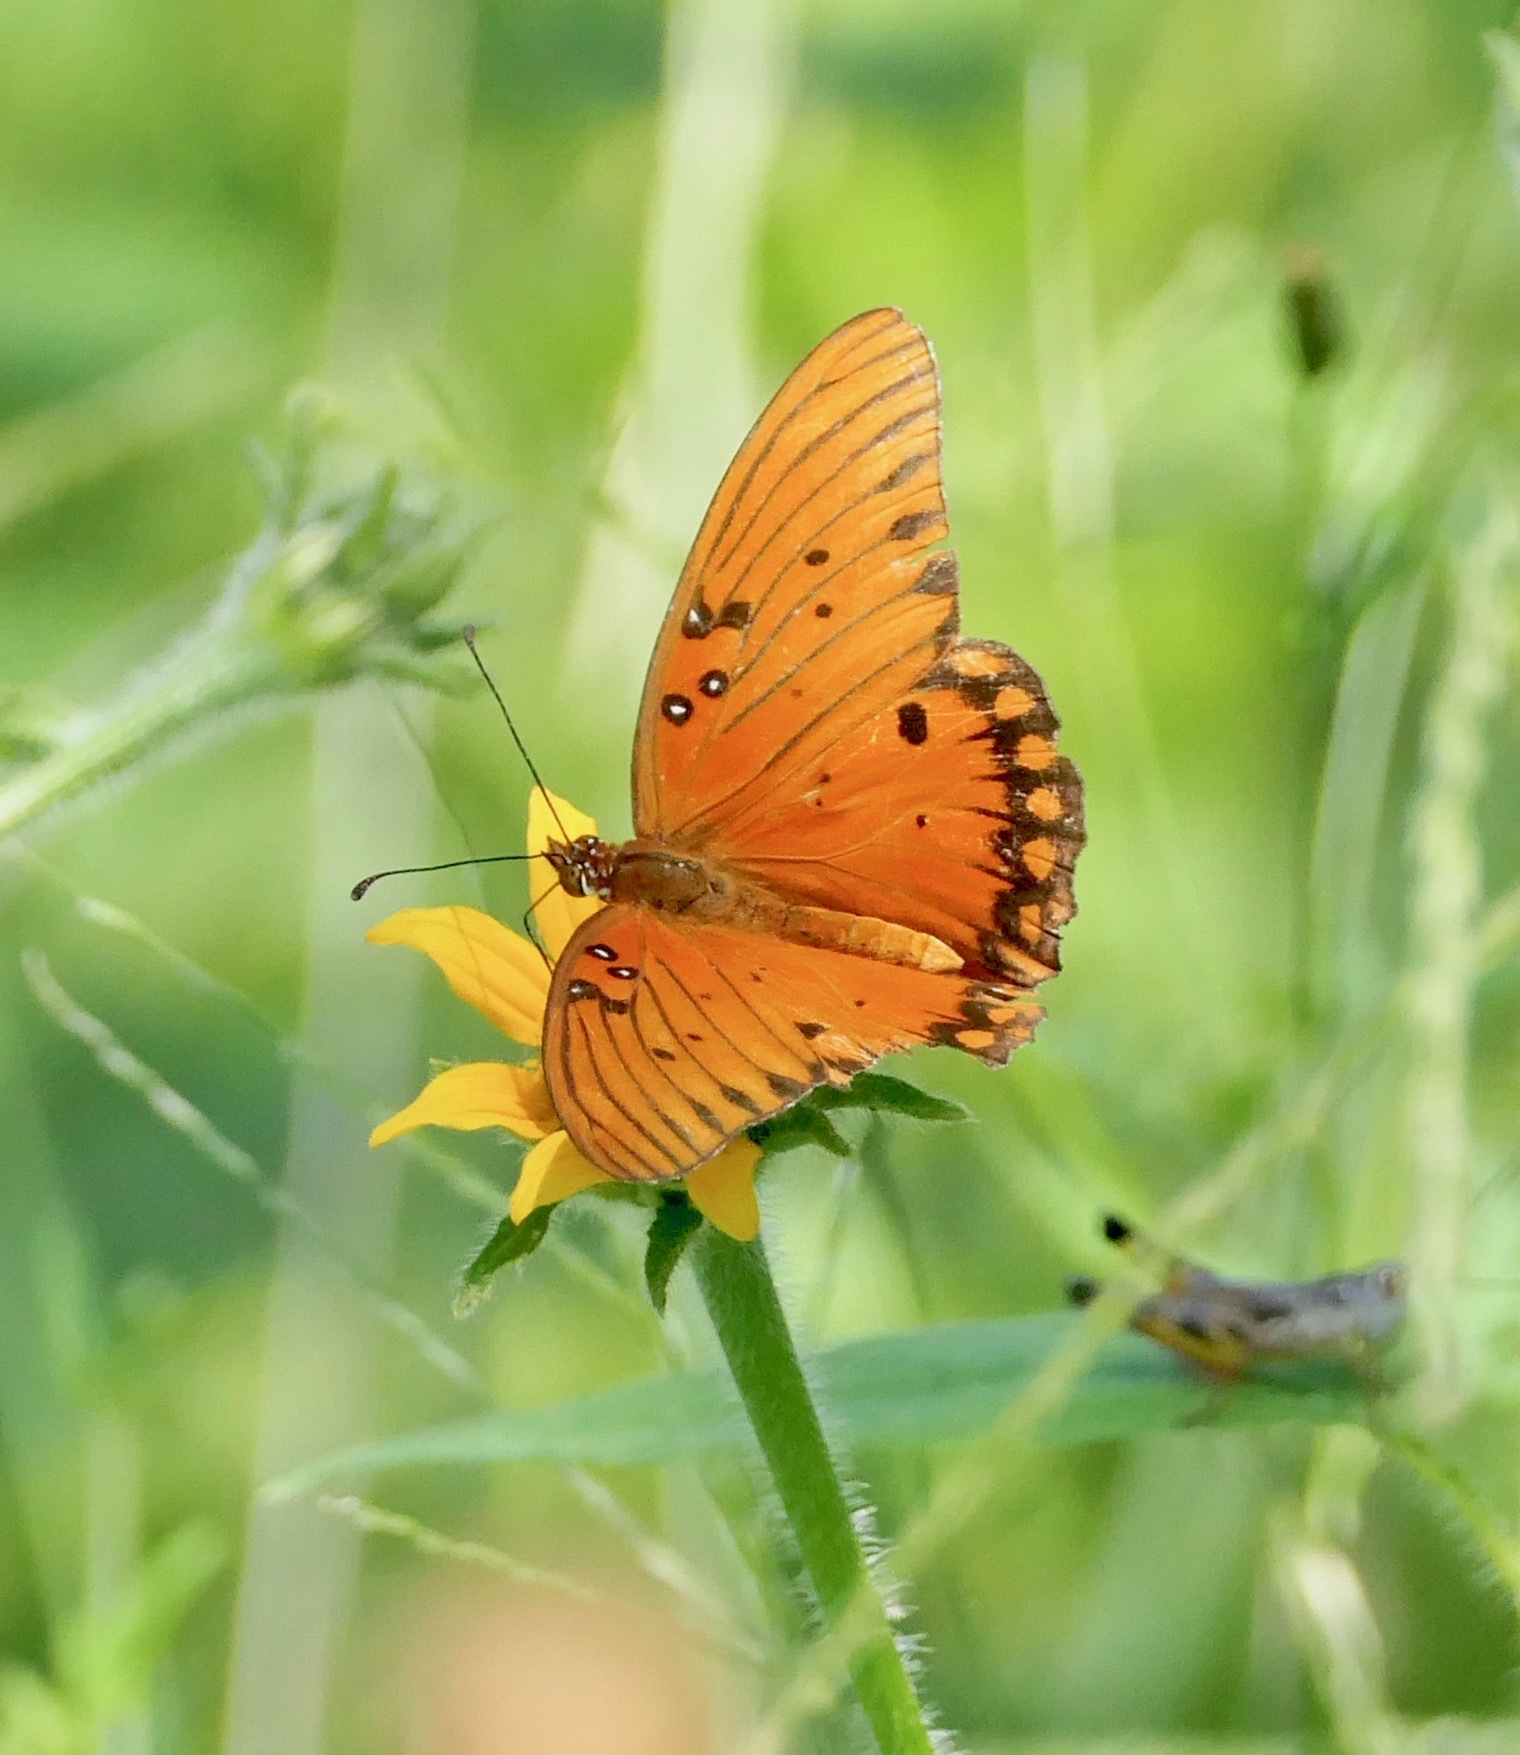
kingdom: Animalia
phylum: Arthropoda
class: Insecta
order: Lepidoptera
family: Nymphalidae
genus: Dione
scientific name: Dione vanillae
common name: Gulf fritillary
